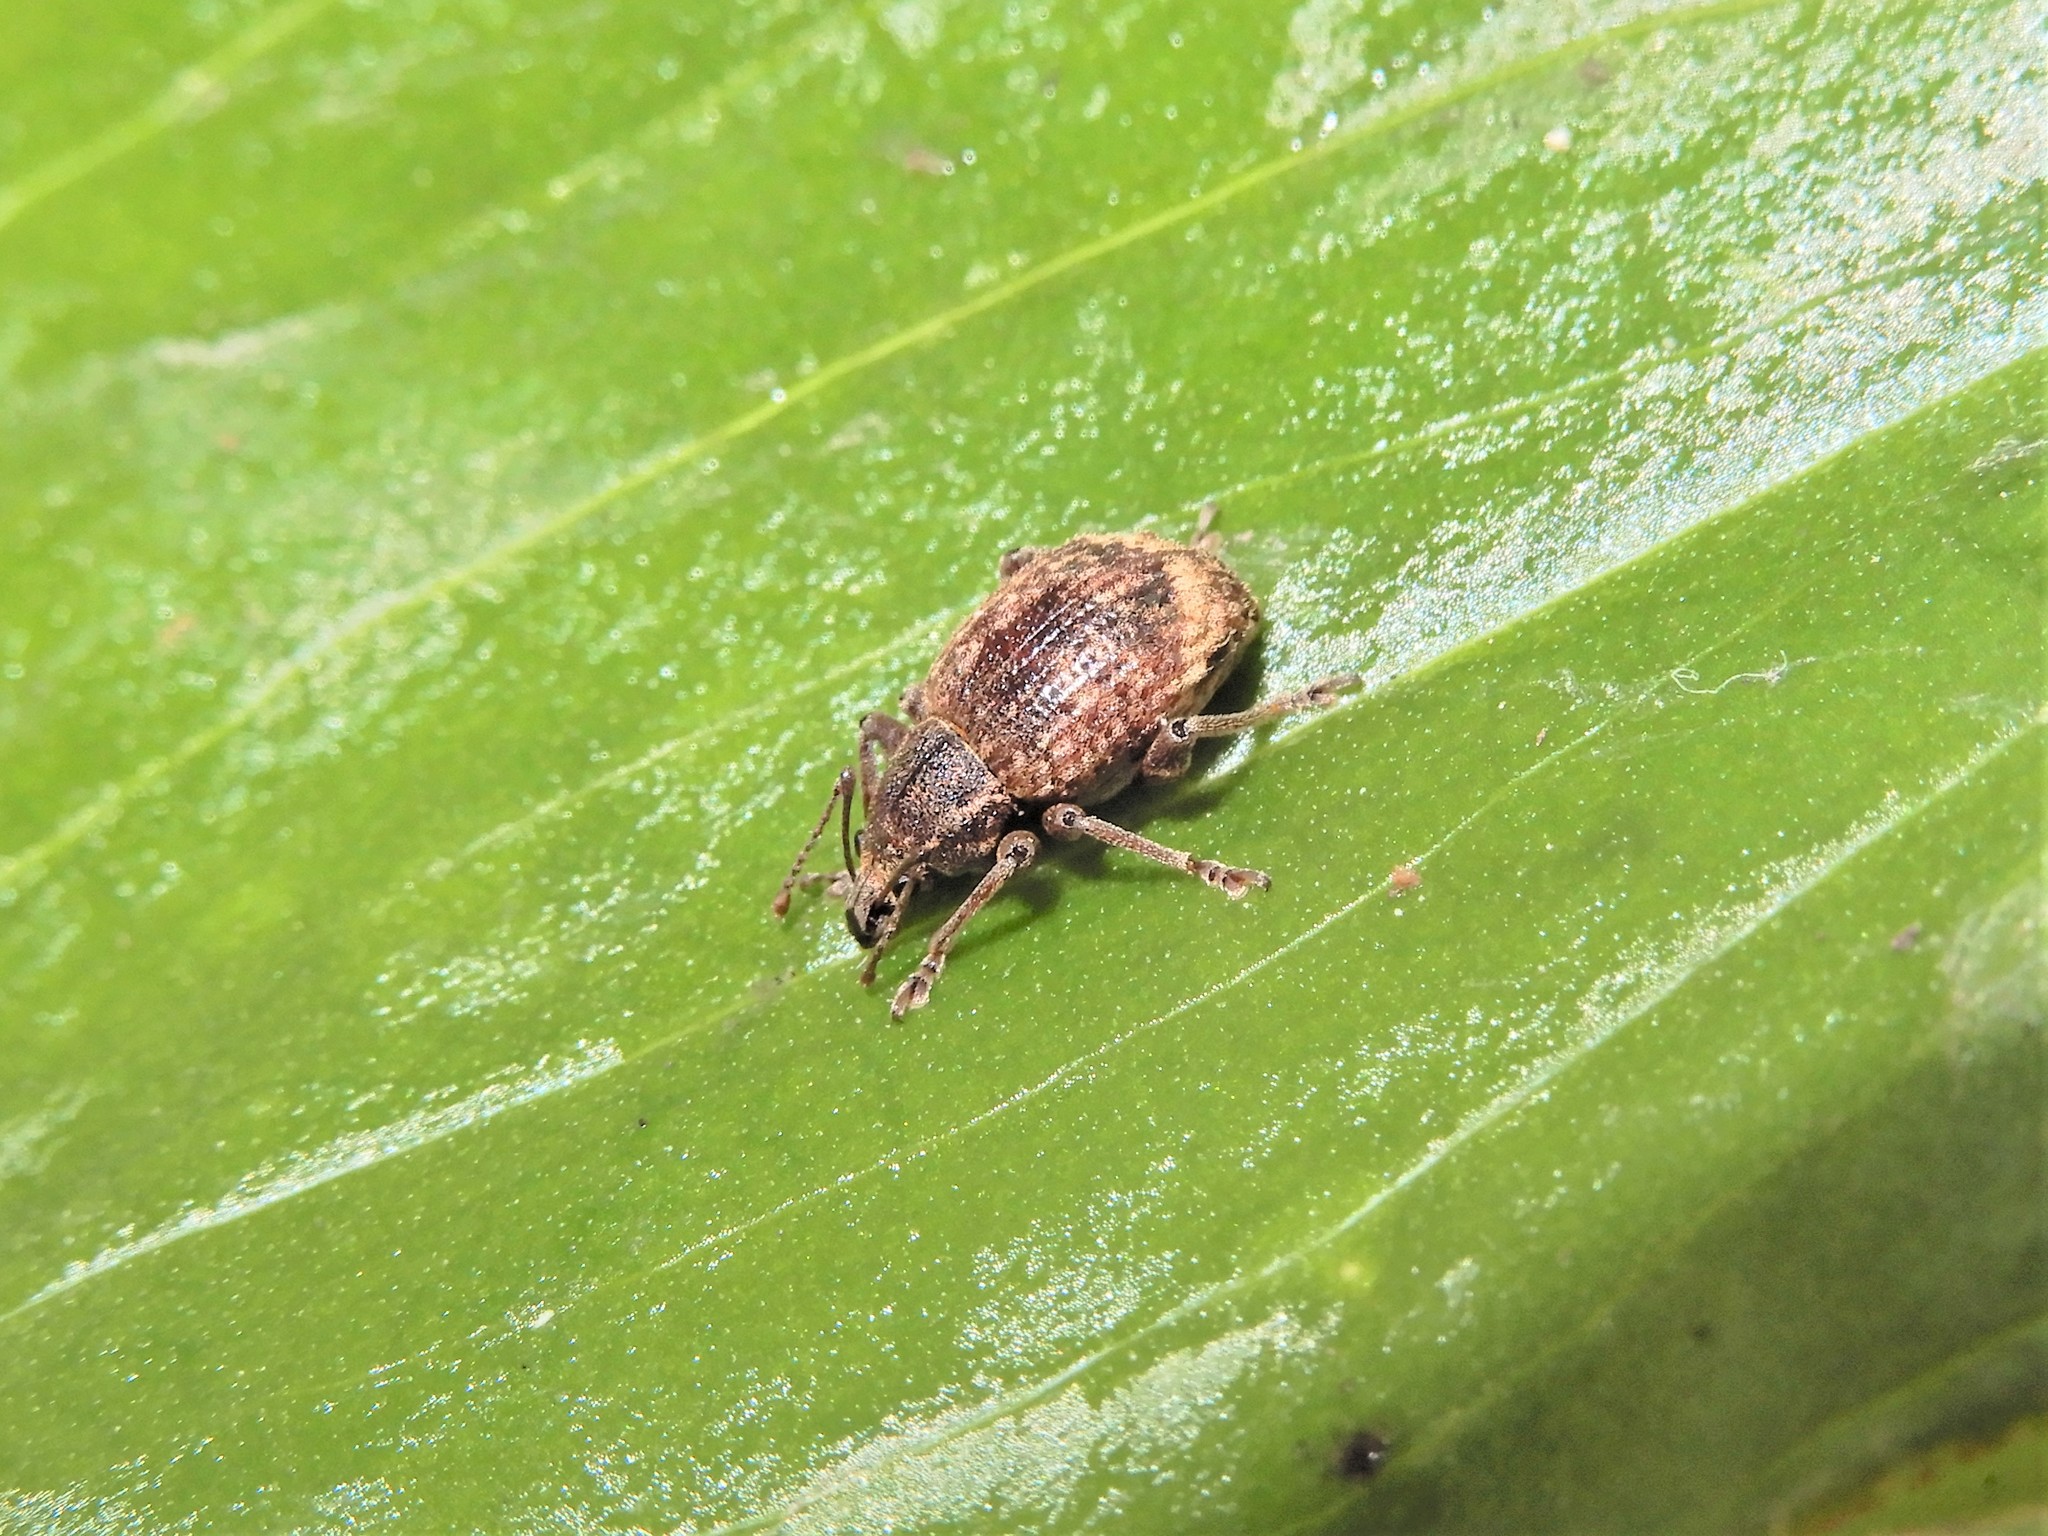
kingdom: Animalia
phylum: Arthropoda
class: Insecta
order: Coleoptera
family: Curculionidae
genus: Phlyctinus
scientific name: Phlyctinus callosus
